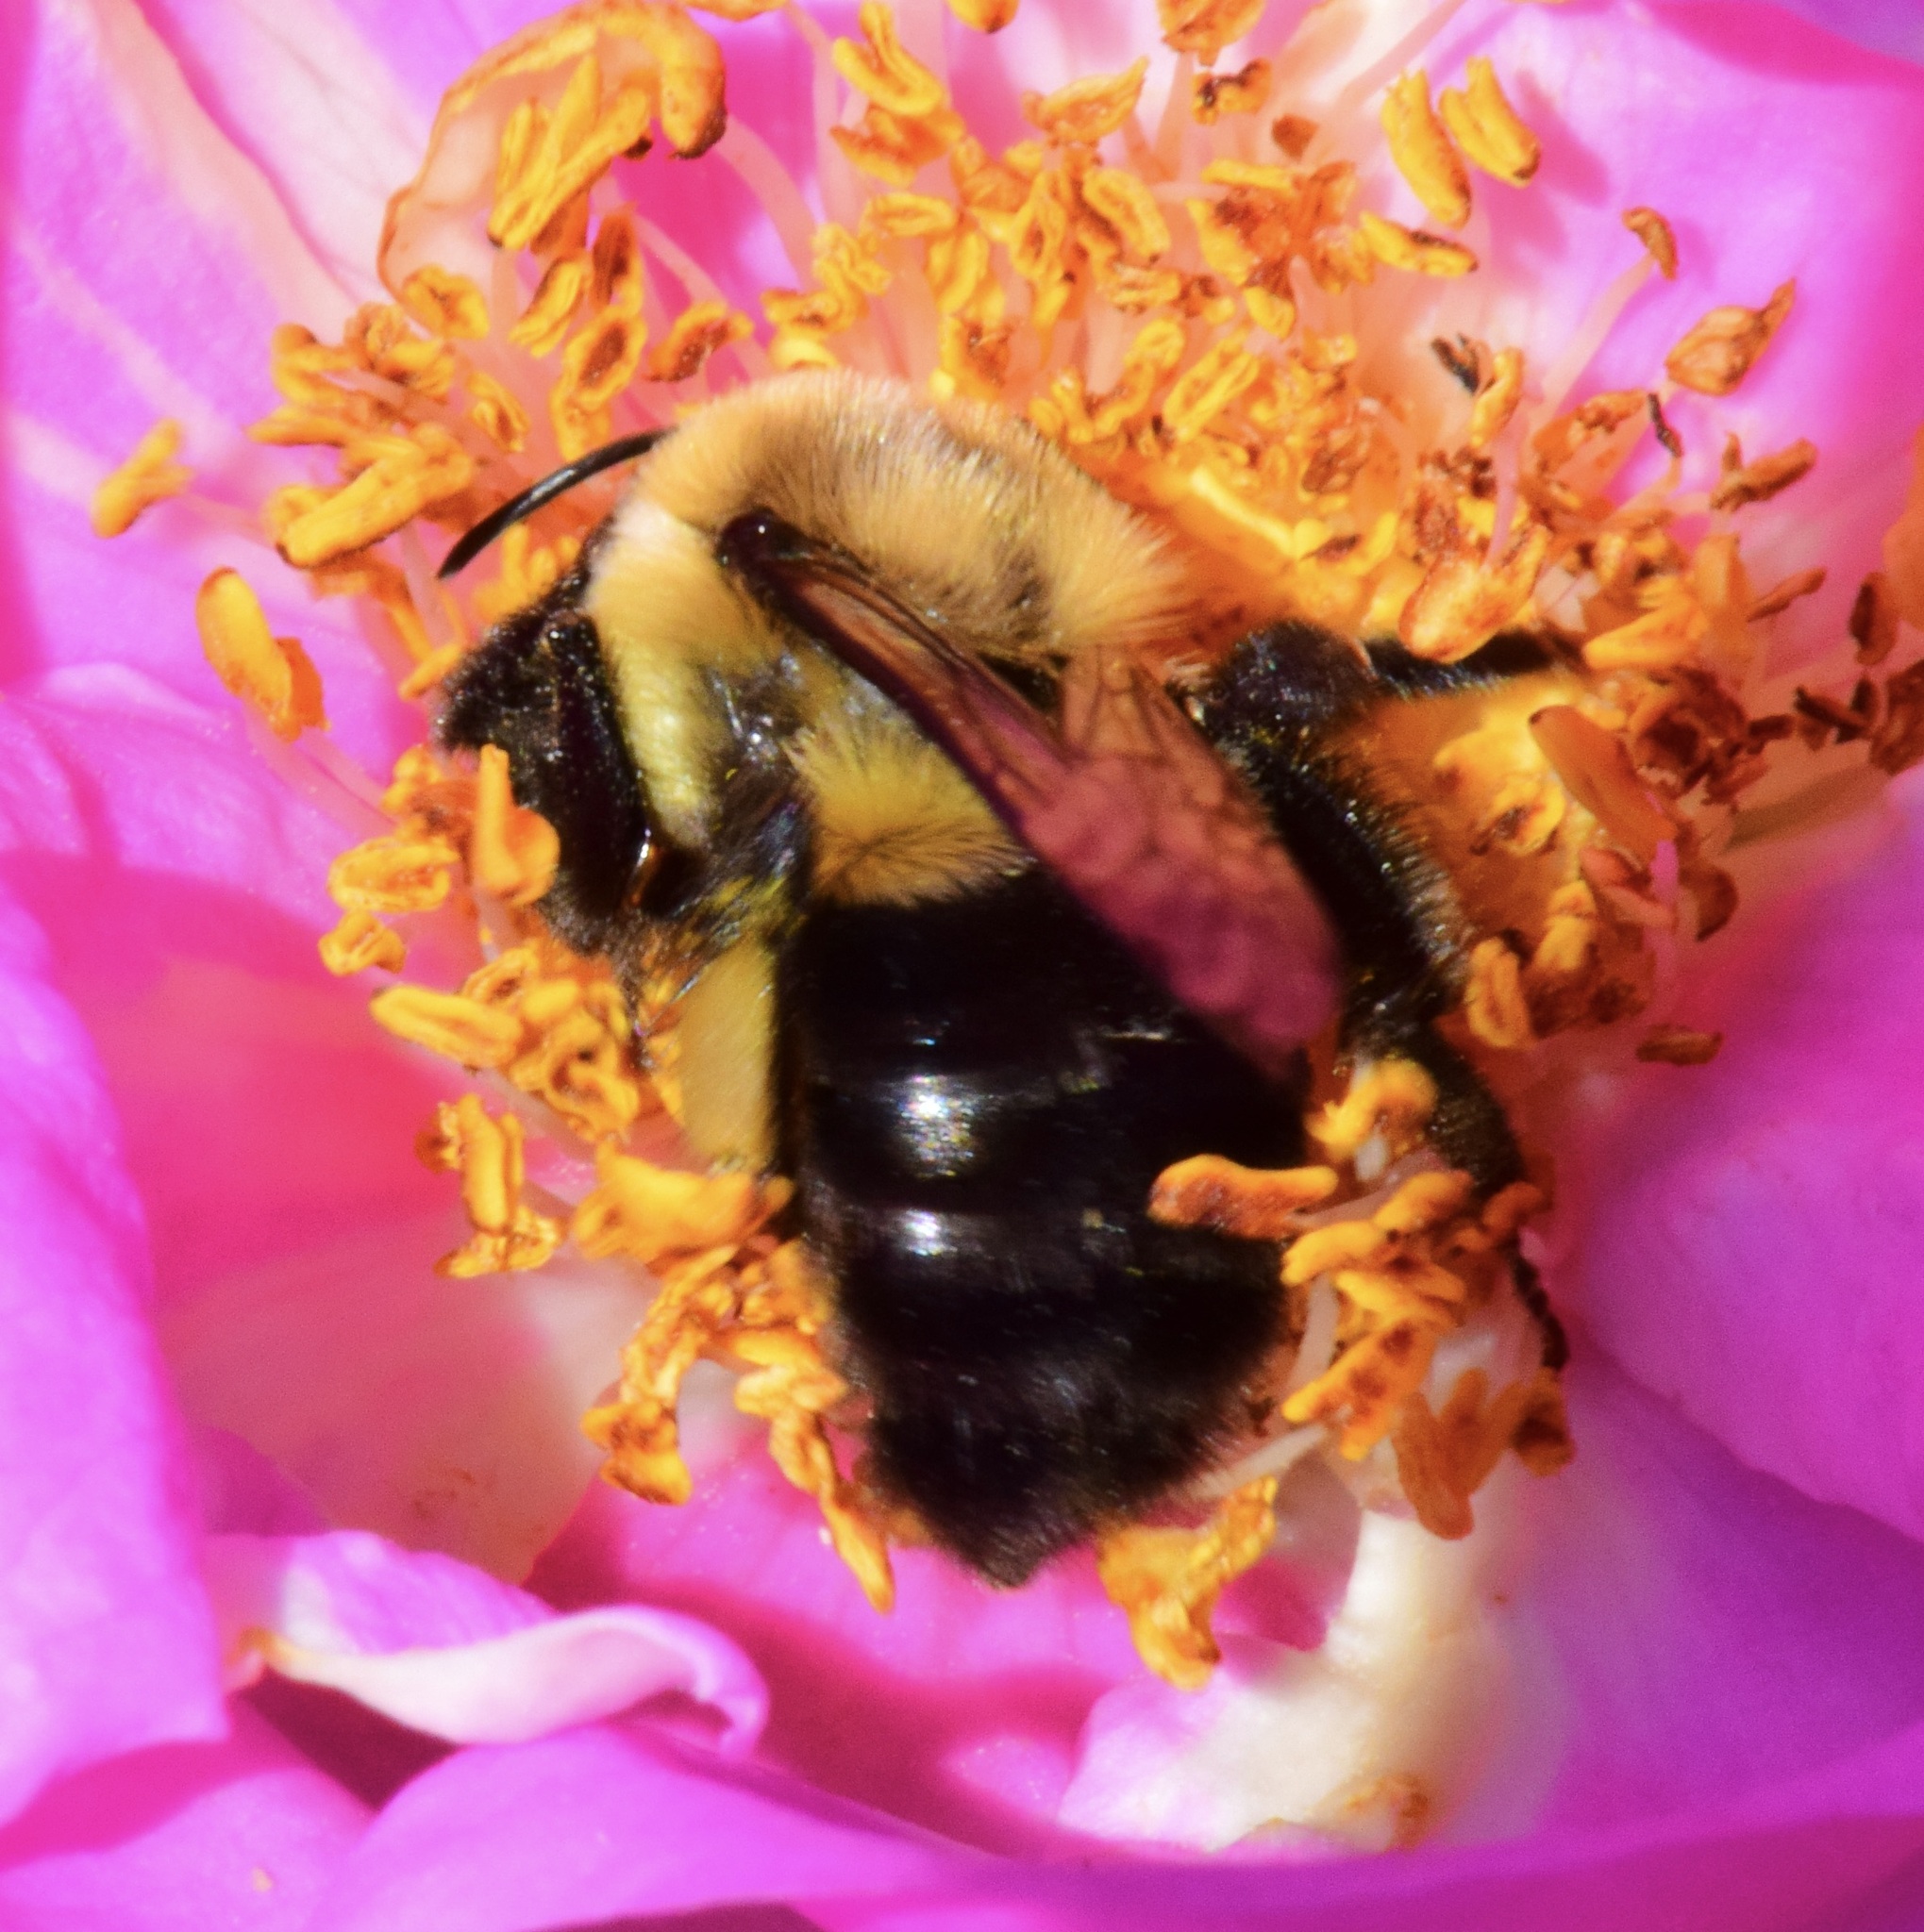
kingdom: Animalia
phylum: Arthropoda
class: Insecta
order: Hymenoptera
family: Apidae
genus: Bombus
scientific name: Bombus impatiens
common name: Common eastern bumble bee
